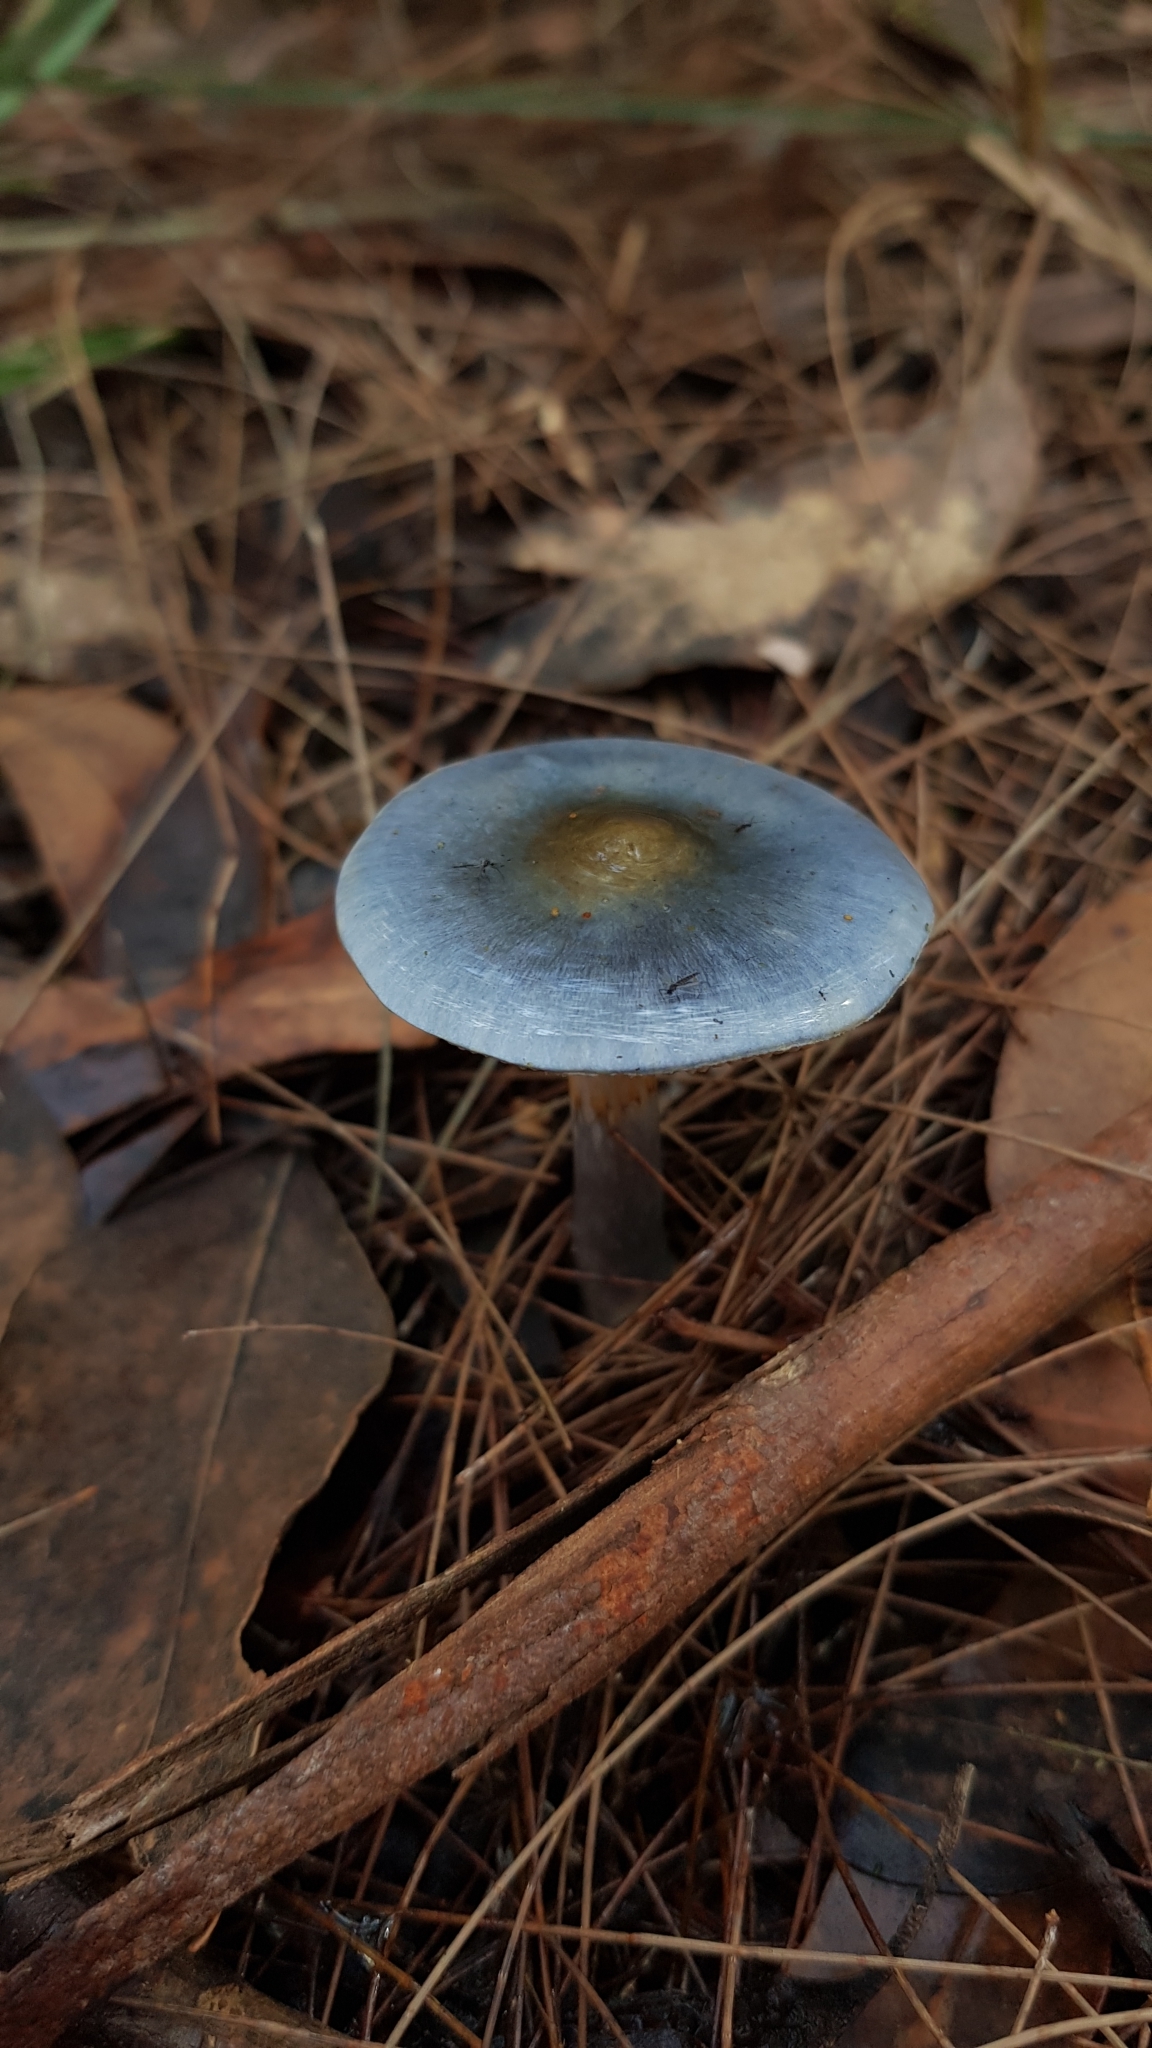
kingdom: Fungi
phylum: Basidiomycota
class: Agaricomycetes
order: Agaricales
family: Cortinariaceae
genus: Cortinarius
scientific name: Cortinarius rotundisporus
